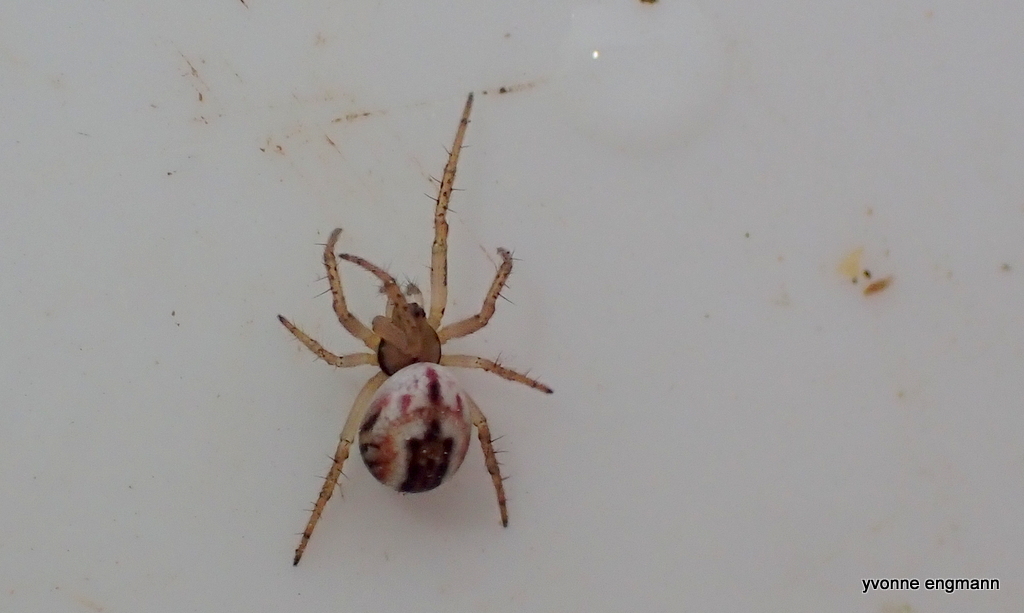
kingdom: Animalia
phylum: Arthropoda
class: Arachnida
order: Araneae
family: Araneidae
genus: Mangora
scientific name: Mangora acalypha
